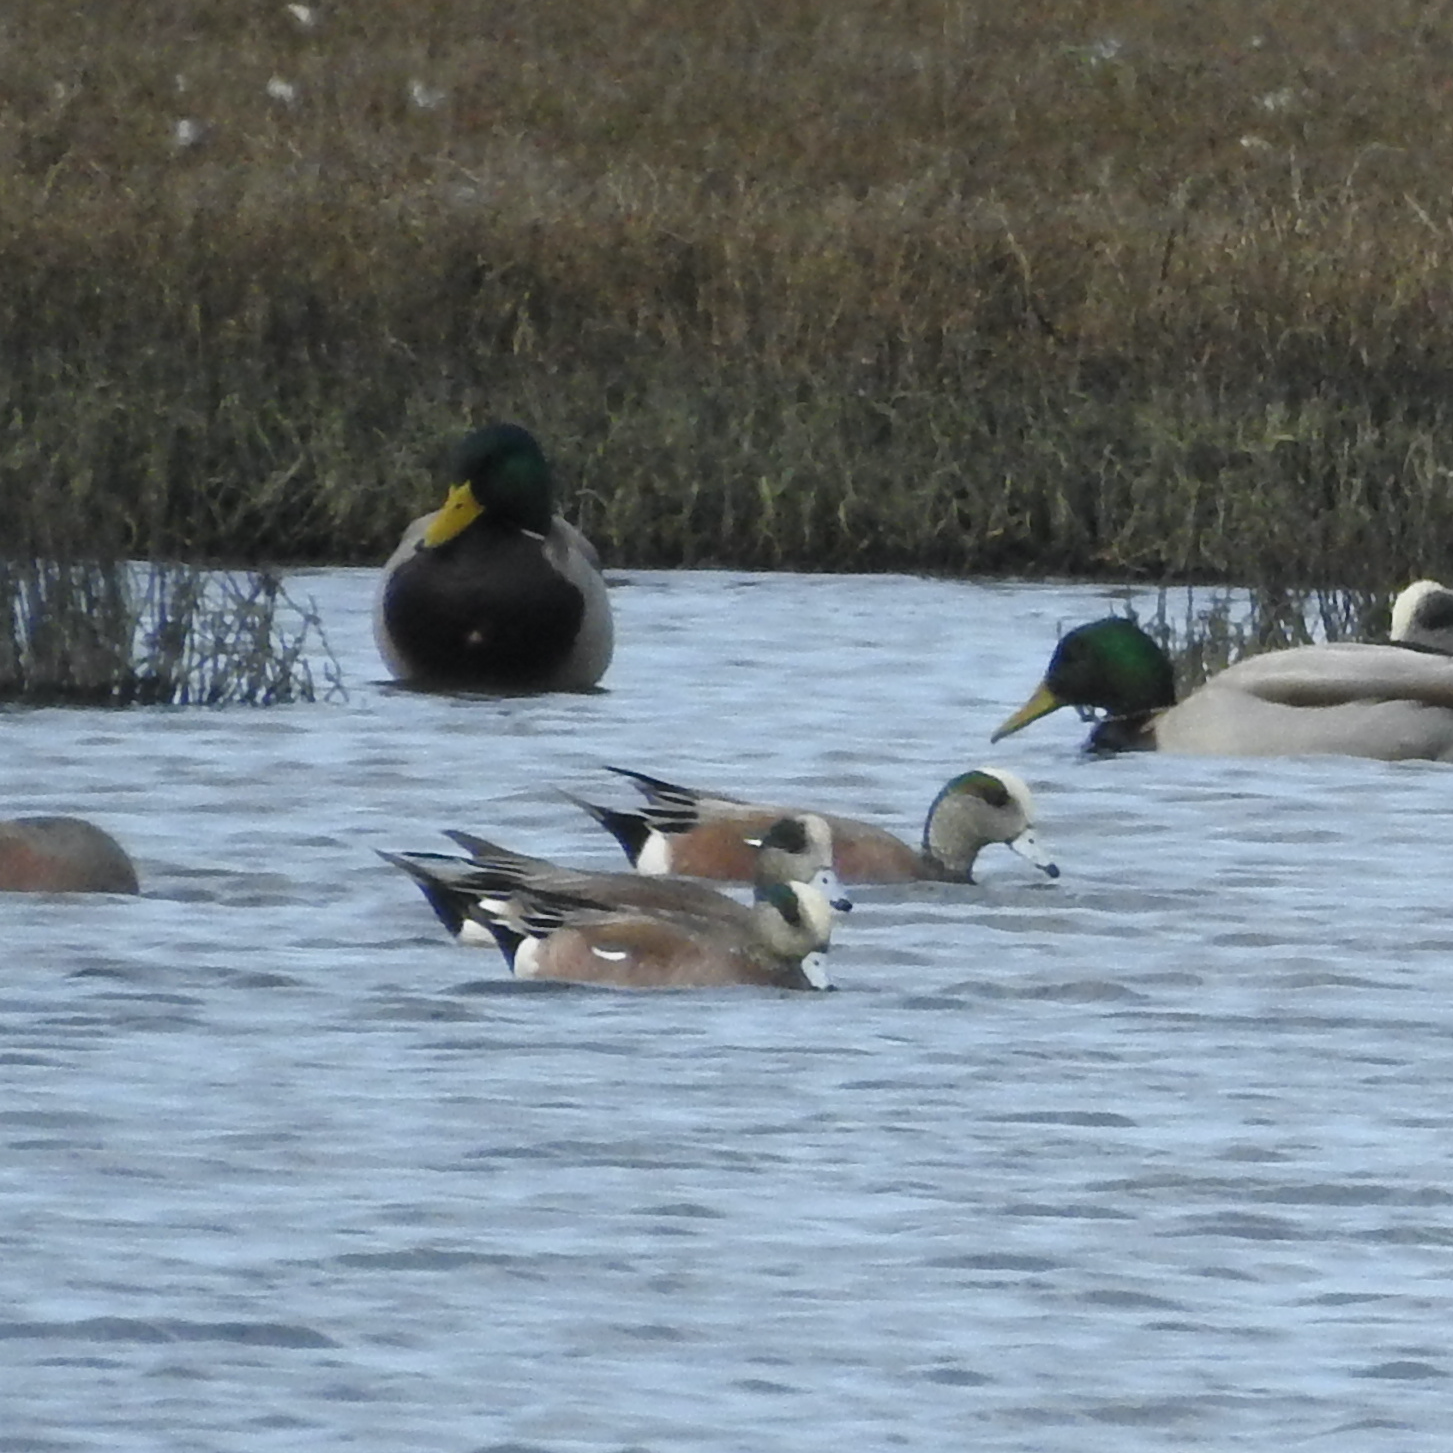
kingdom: Animalia
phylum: Chordata
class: Aves
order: Anseriformes
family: Anatidae
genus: Mareca
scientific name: Mareca americana
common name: American wigeon
